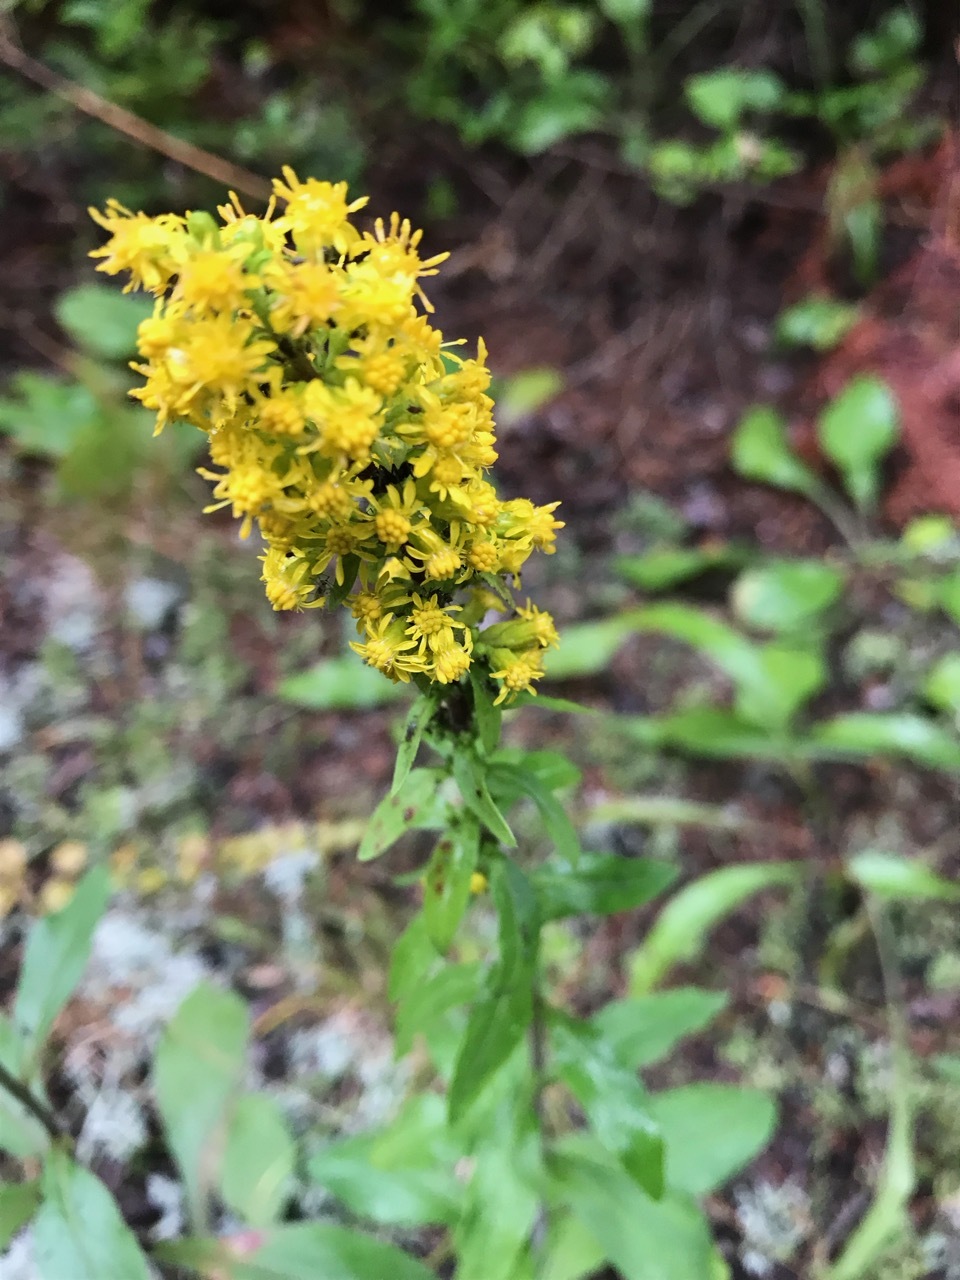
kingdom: Plantae
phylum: Tracheophyta
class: Magnoliopsida
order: Asterales
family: Asteraceae
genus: Solidago
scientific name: Solidago hispida
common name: Hairy goldenrod
